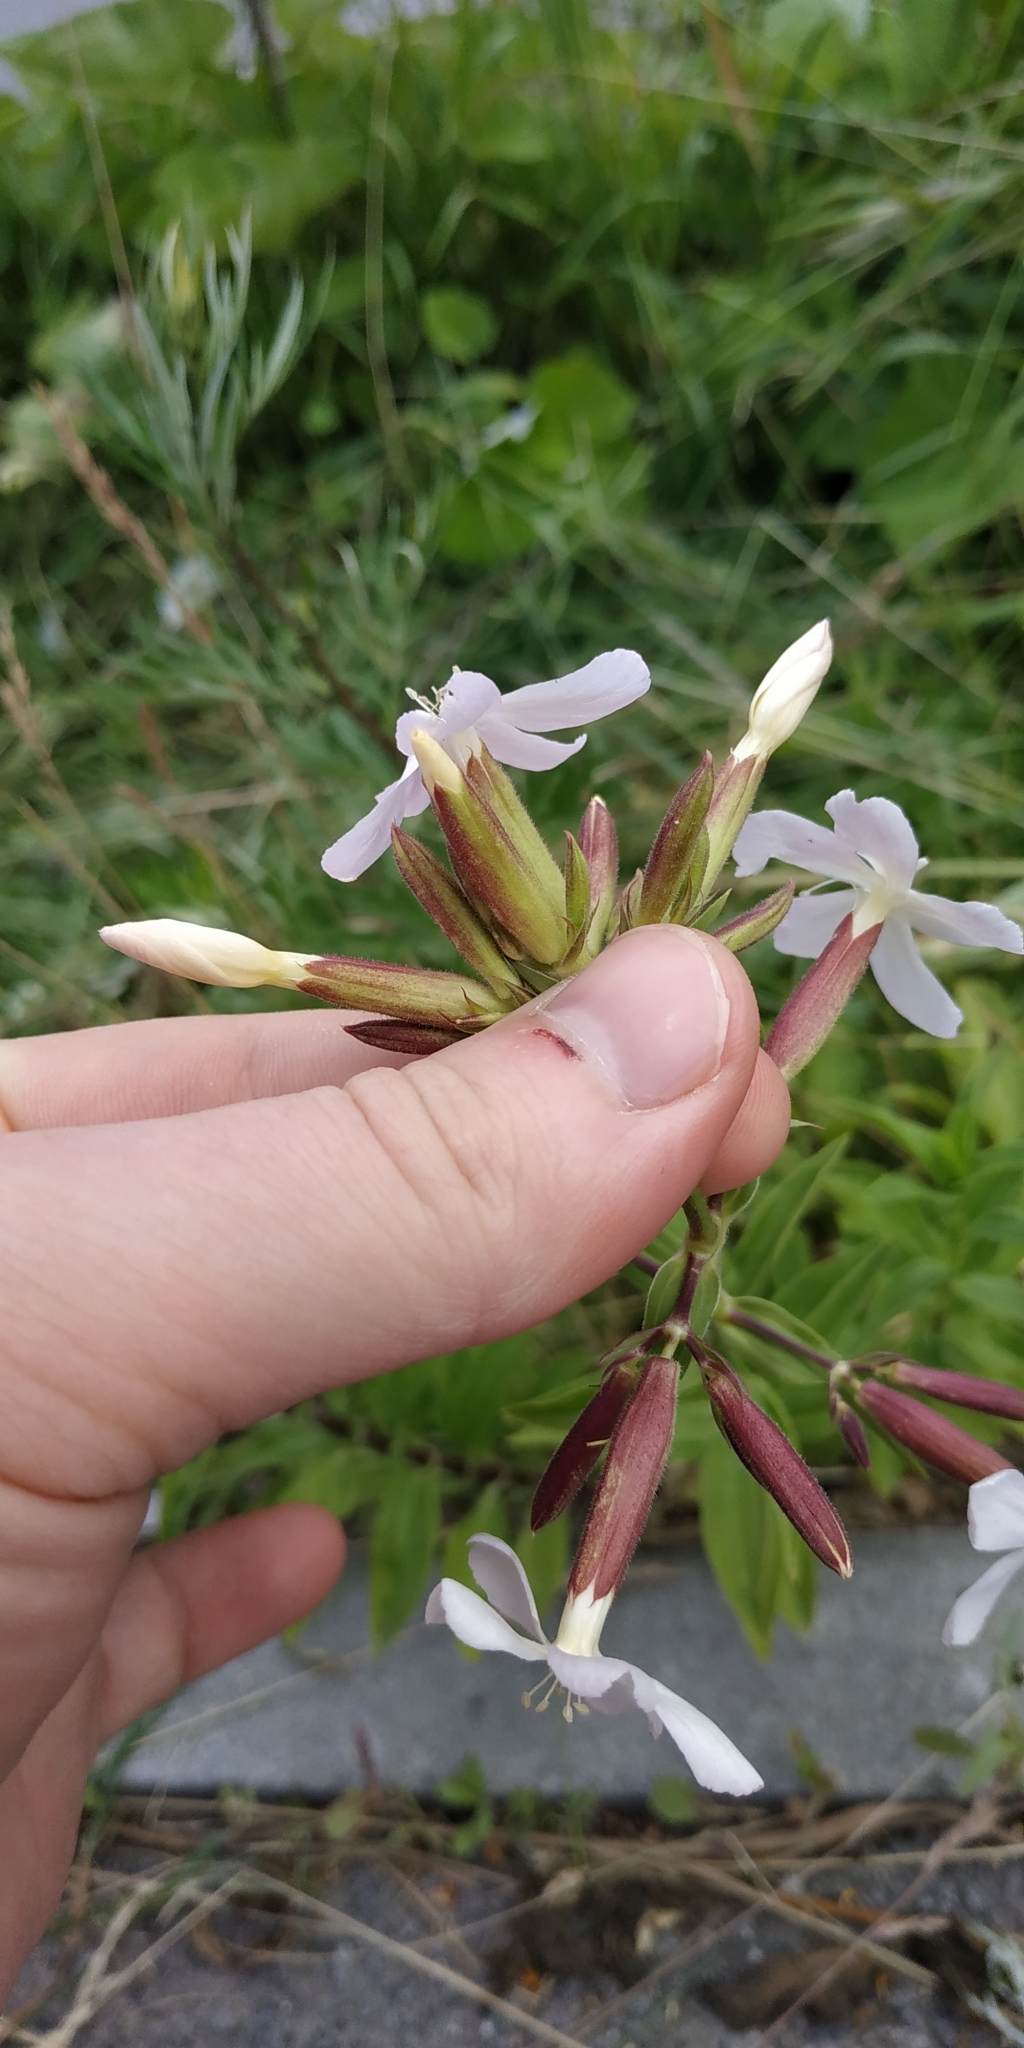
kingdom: Plantae
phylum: Tracheophyta
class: Magnoliopsida
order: Caryophyllales
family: Caryophyllaceae
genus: Saponaria
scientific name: Saponaria officinalis
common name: Soapwort
